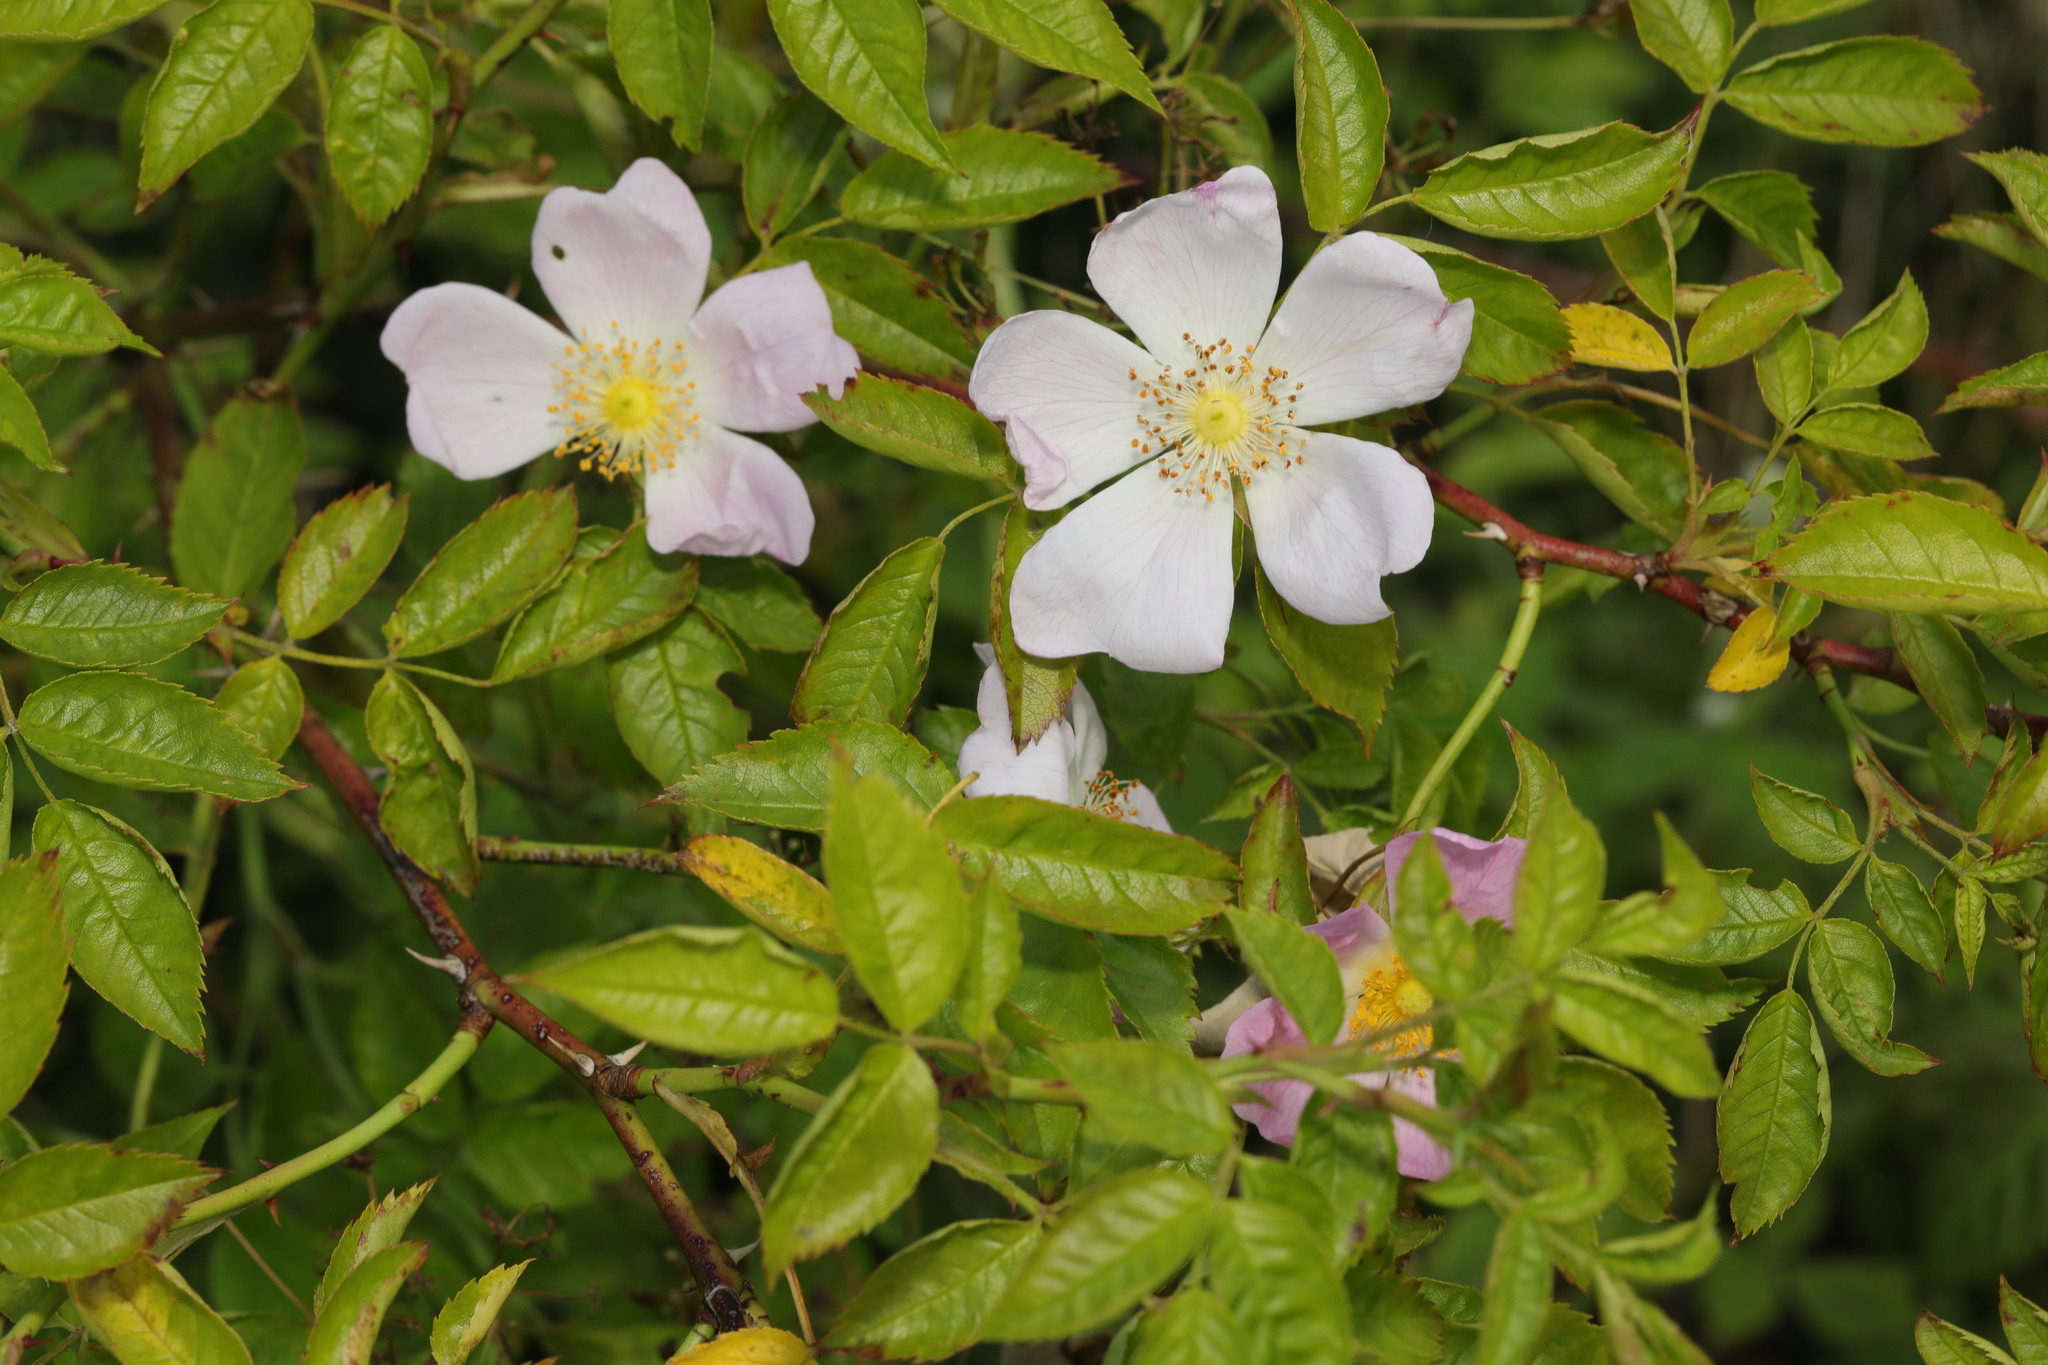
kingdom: Plantae
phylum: Tracheophyta
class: Magnoliopsida
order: Rosales
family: Rosaceae
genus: Rosa
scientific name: Rosa canina
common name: Dog rose
